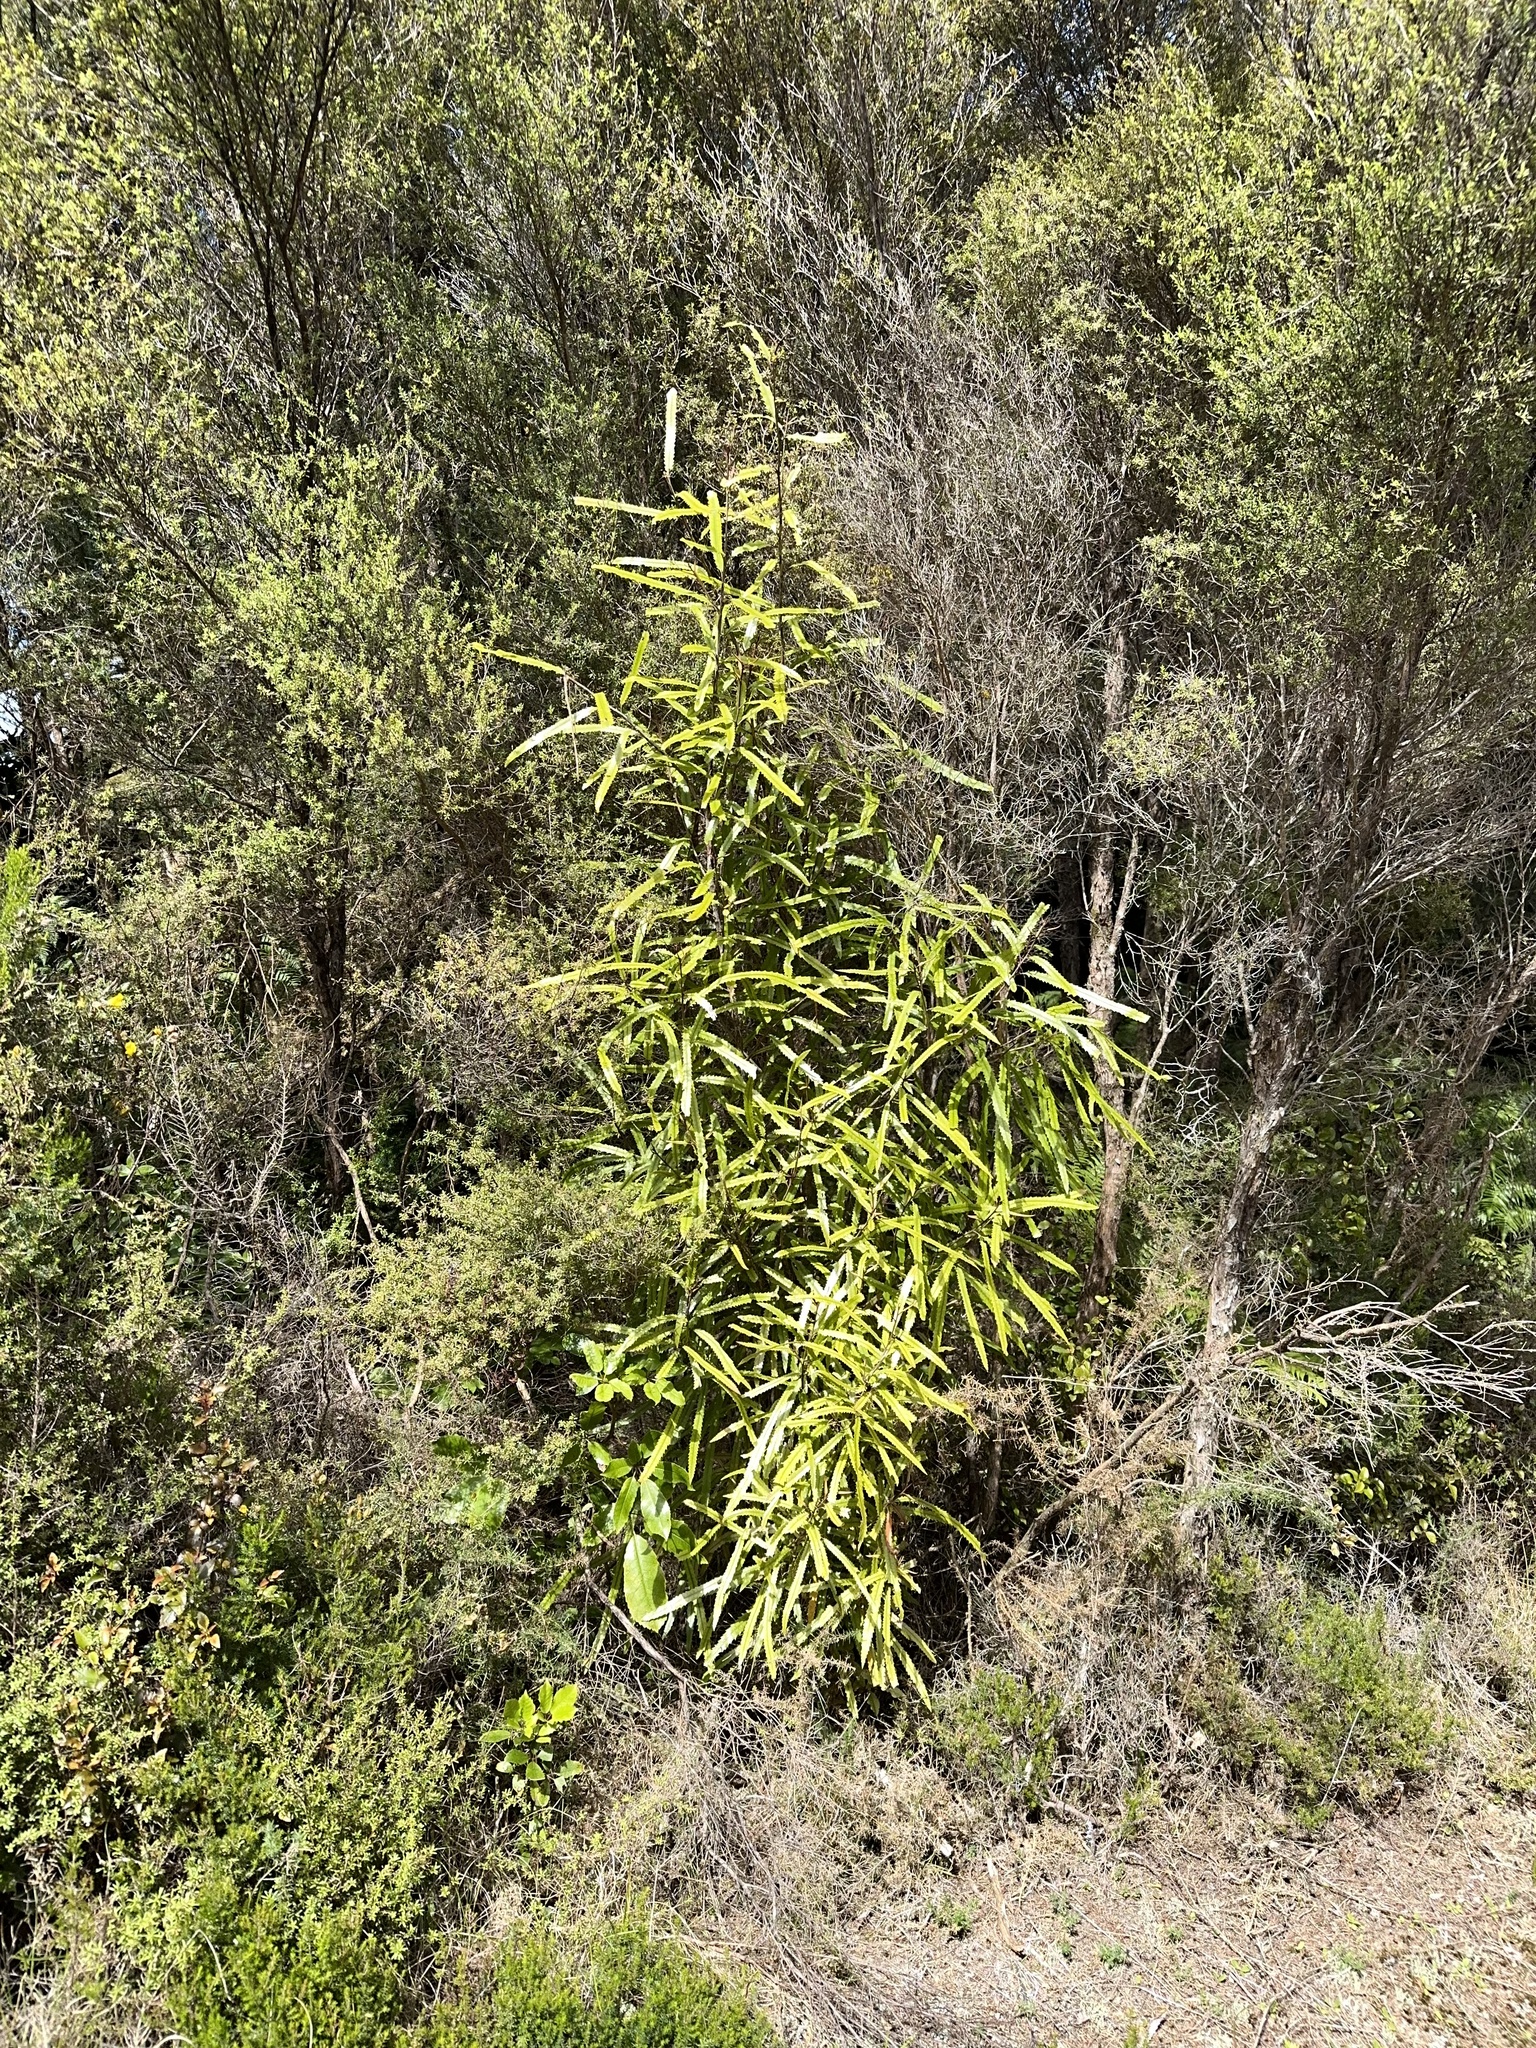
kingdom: Plantae
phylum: Tracheophyta
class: Magnoliopsida
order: Proteales
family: Proteaceae
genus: Knightia
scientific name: Knightia excelsa
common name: New zealand-honeysuckle
